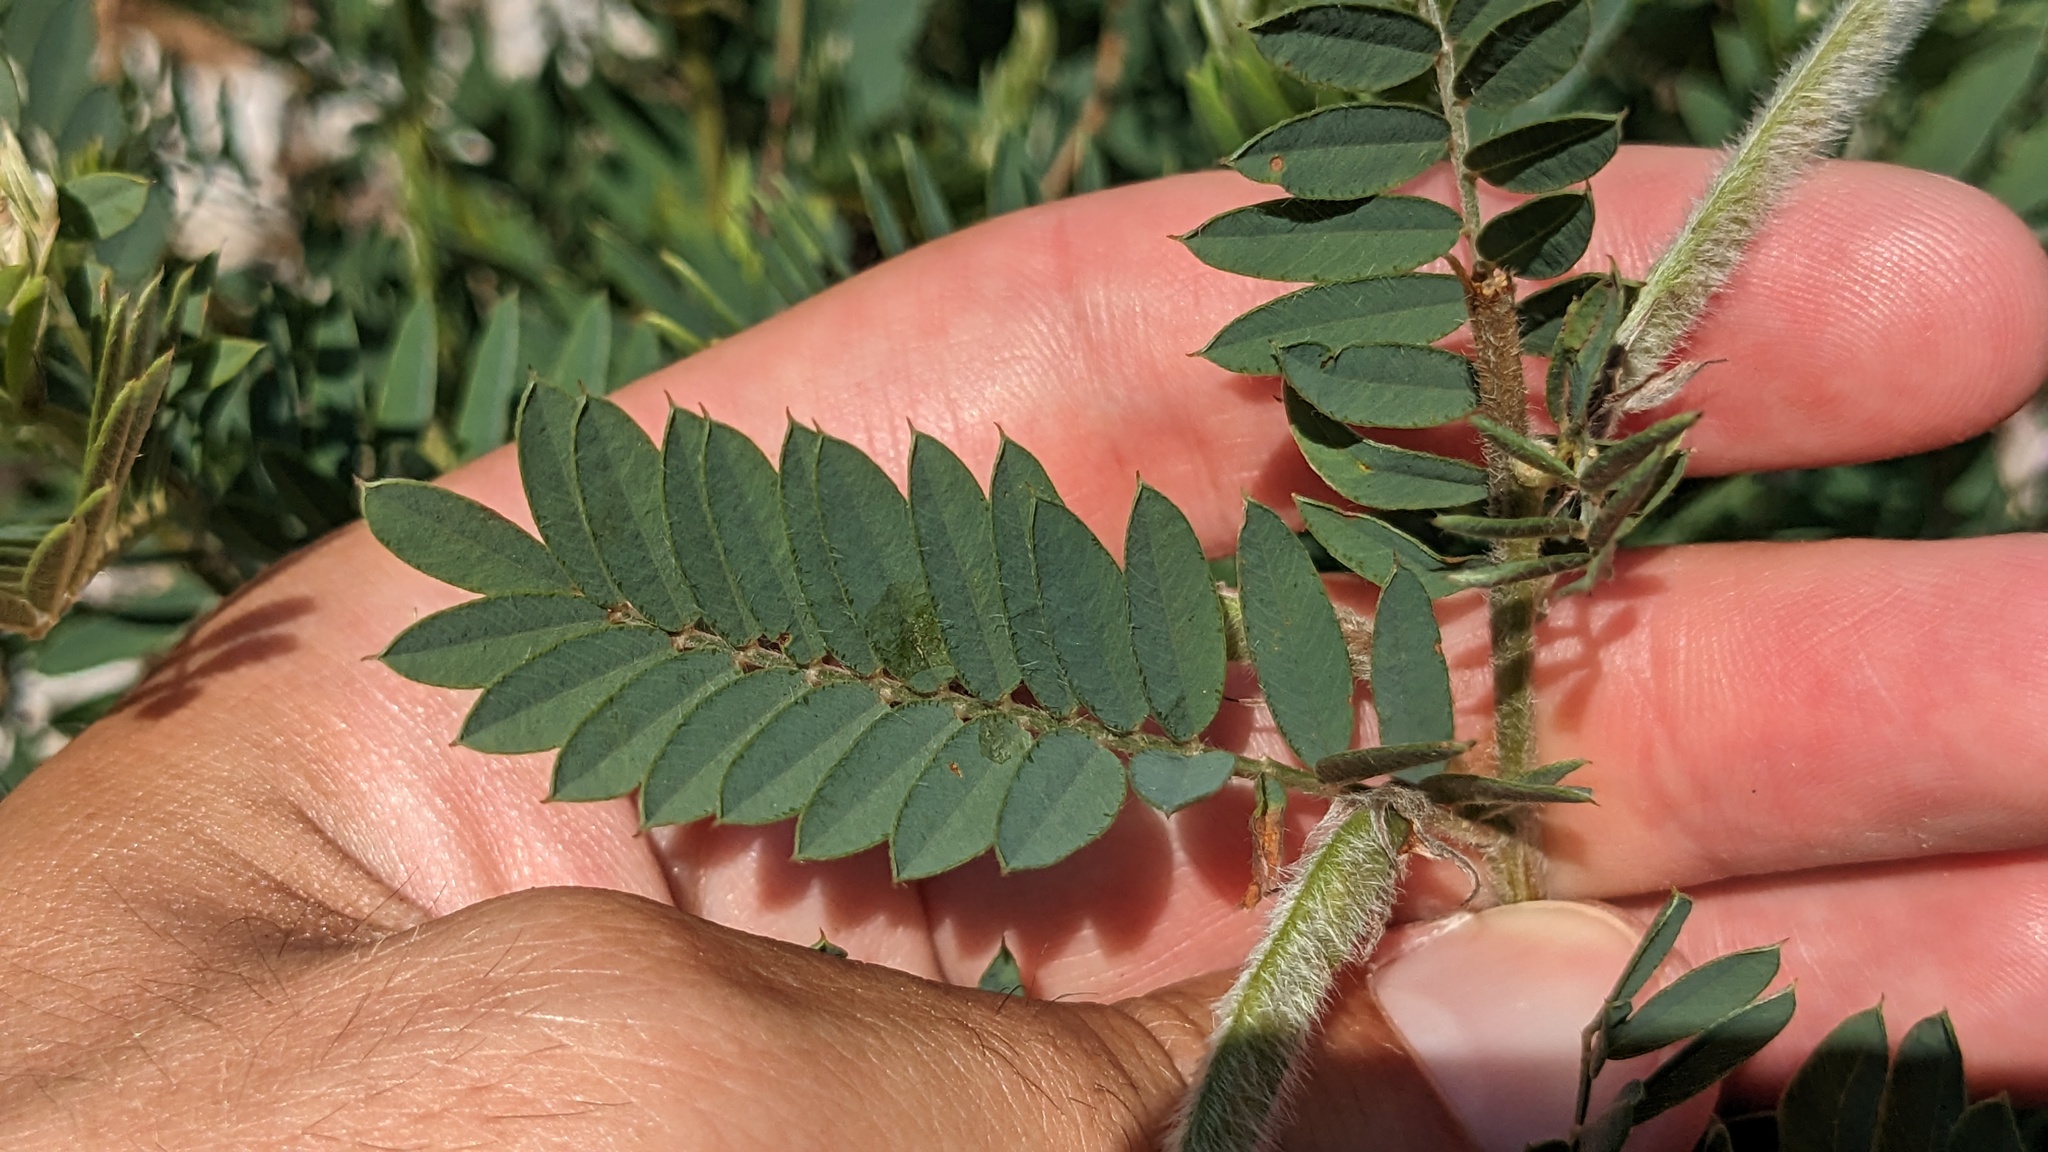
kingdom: Plantae
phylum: Tracheophyta
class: Magnoliopsida
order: Fabales
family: Fabaceae
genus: Tephrosia
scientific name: Tephrosia virginiana
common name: Rabbit-pea
